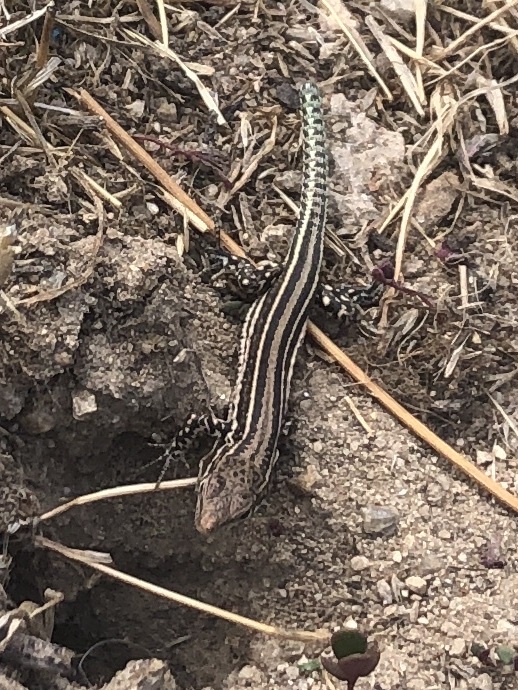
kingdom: Animalia
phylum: Chordata
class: Squamata
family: Lacertidae
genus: Podarcis
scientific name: Podarcis guadarramae
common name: Guadarrama wall lizard
